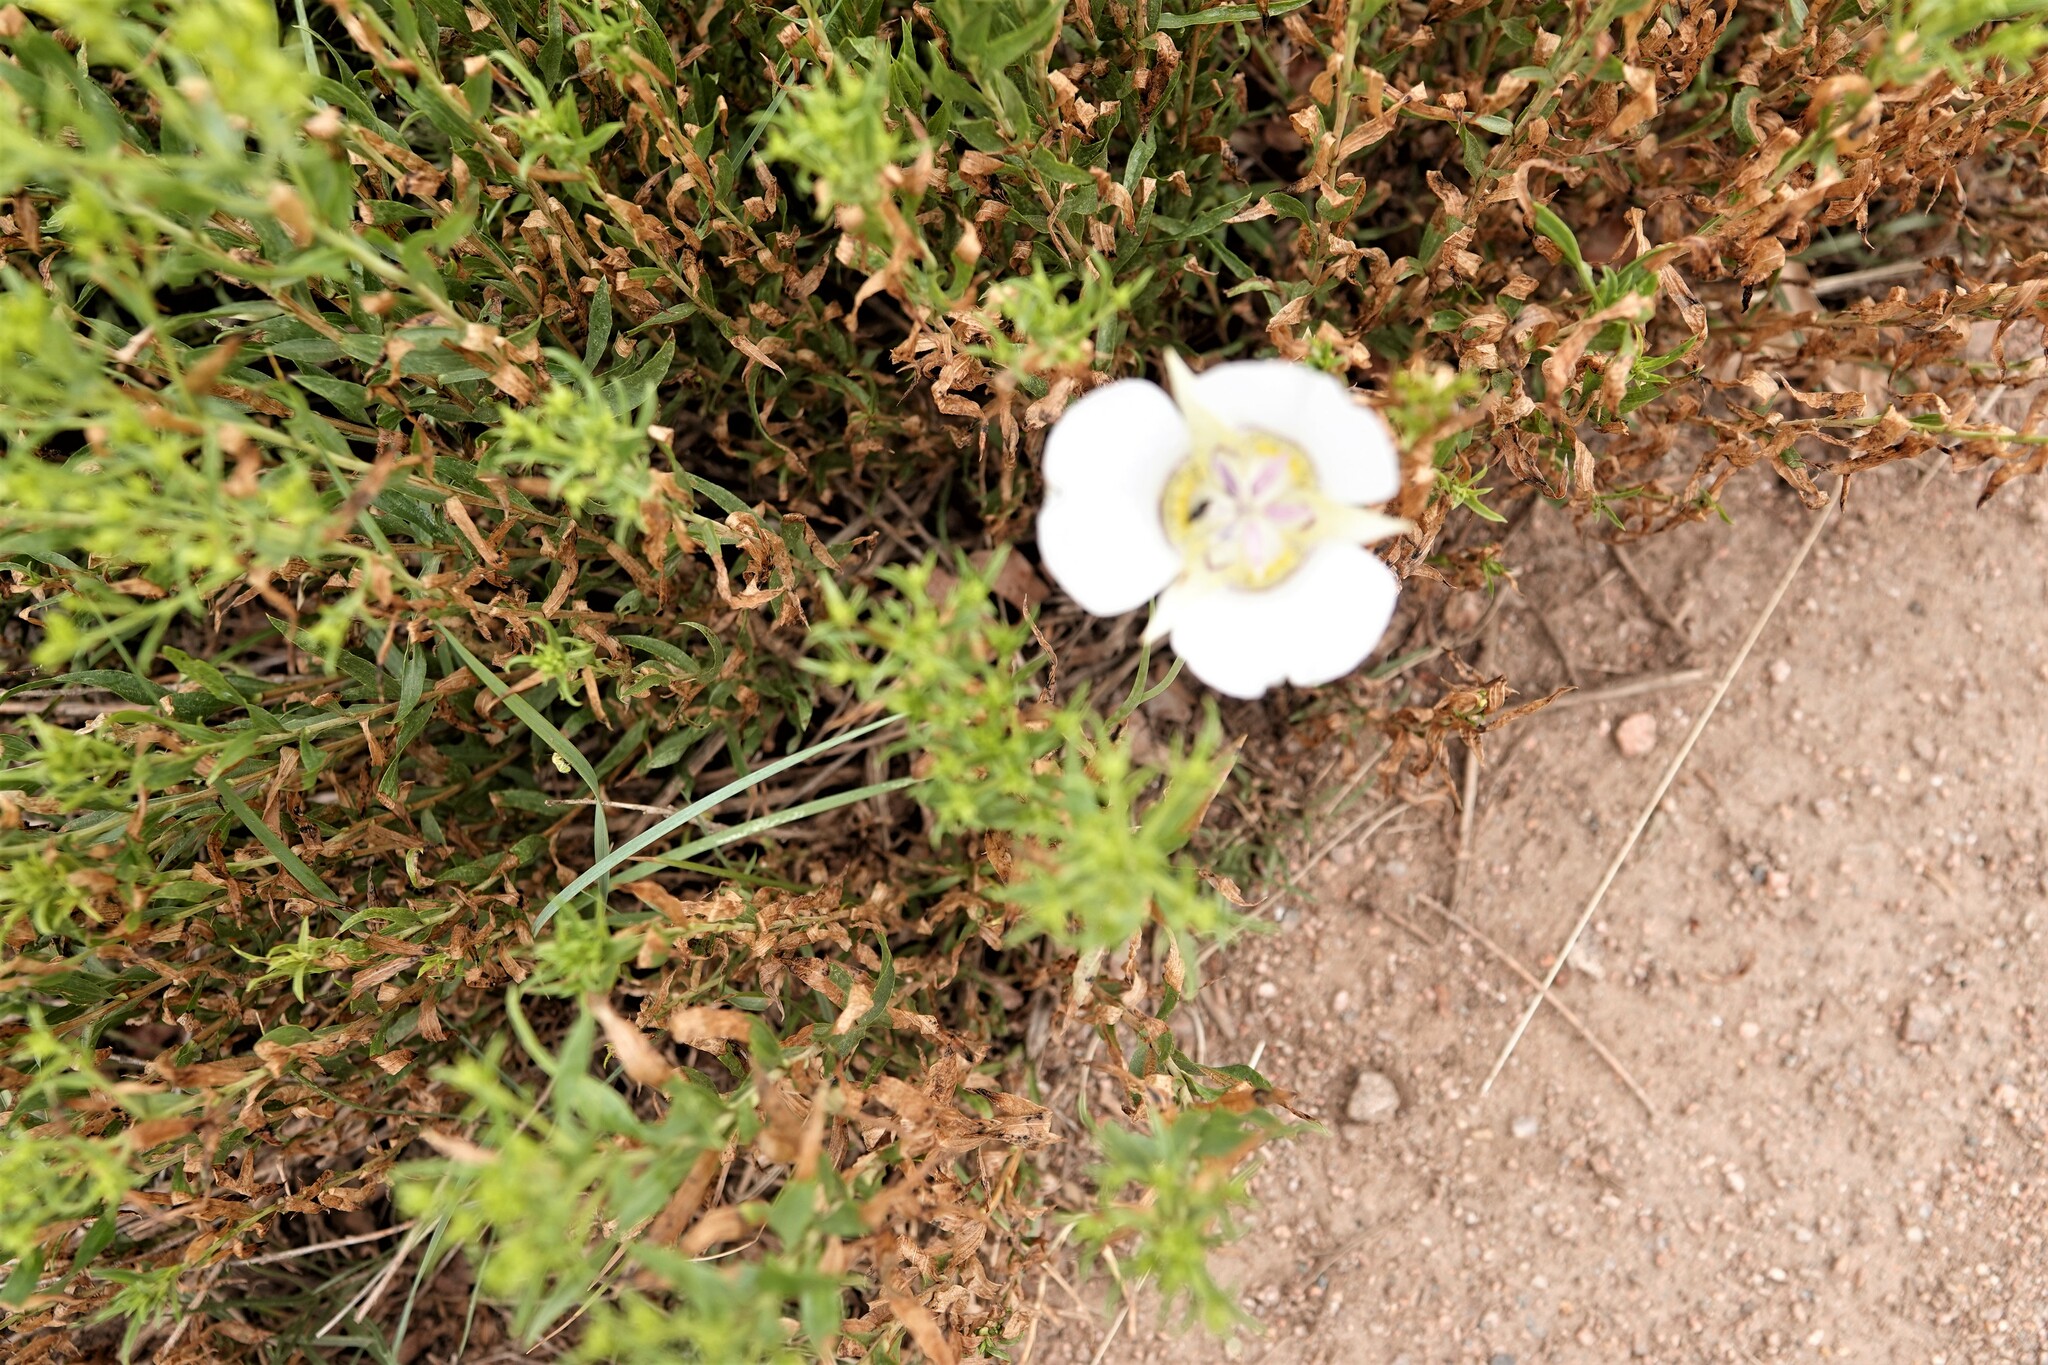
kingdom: Plantae
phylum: Tracheophyta
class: Liliopsida
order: Liliales
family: Liliaceae
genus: Calochortus
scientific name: Calochortus gunnisonii
